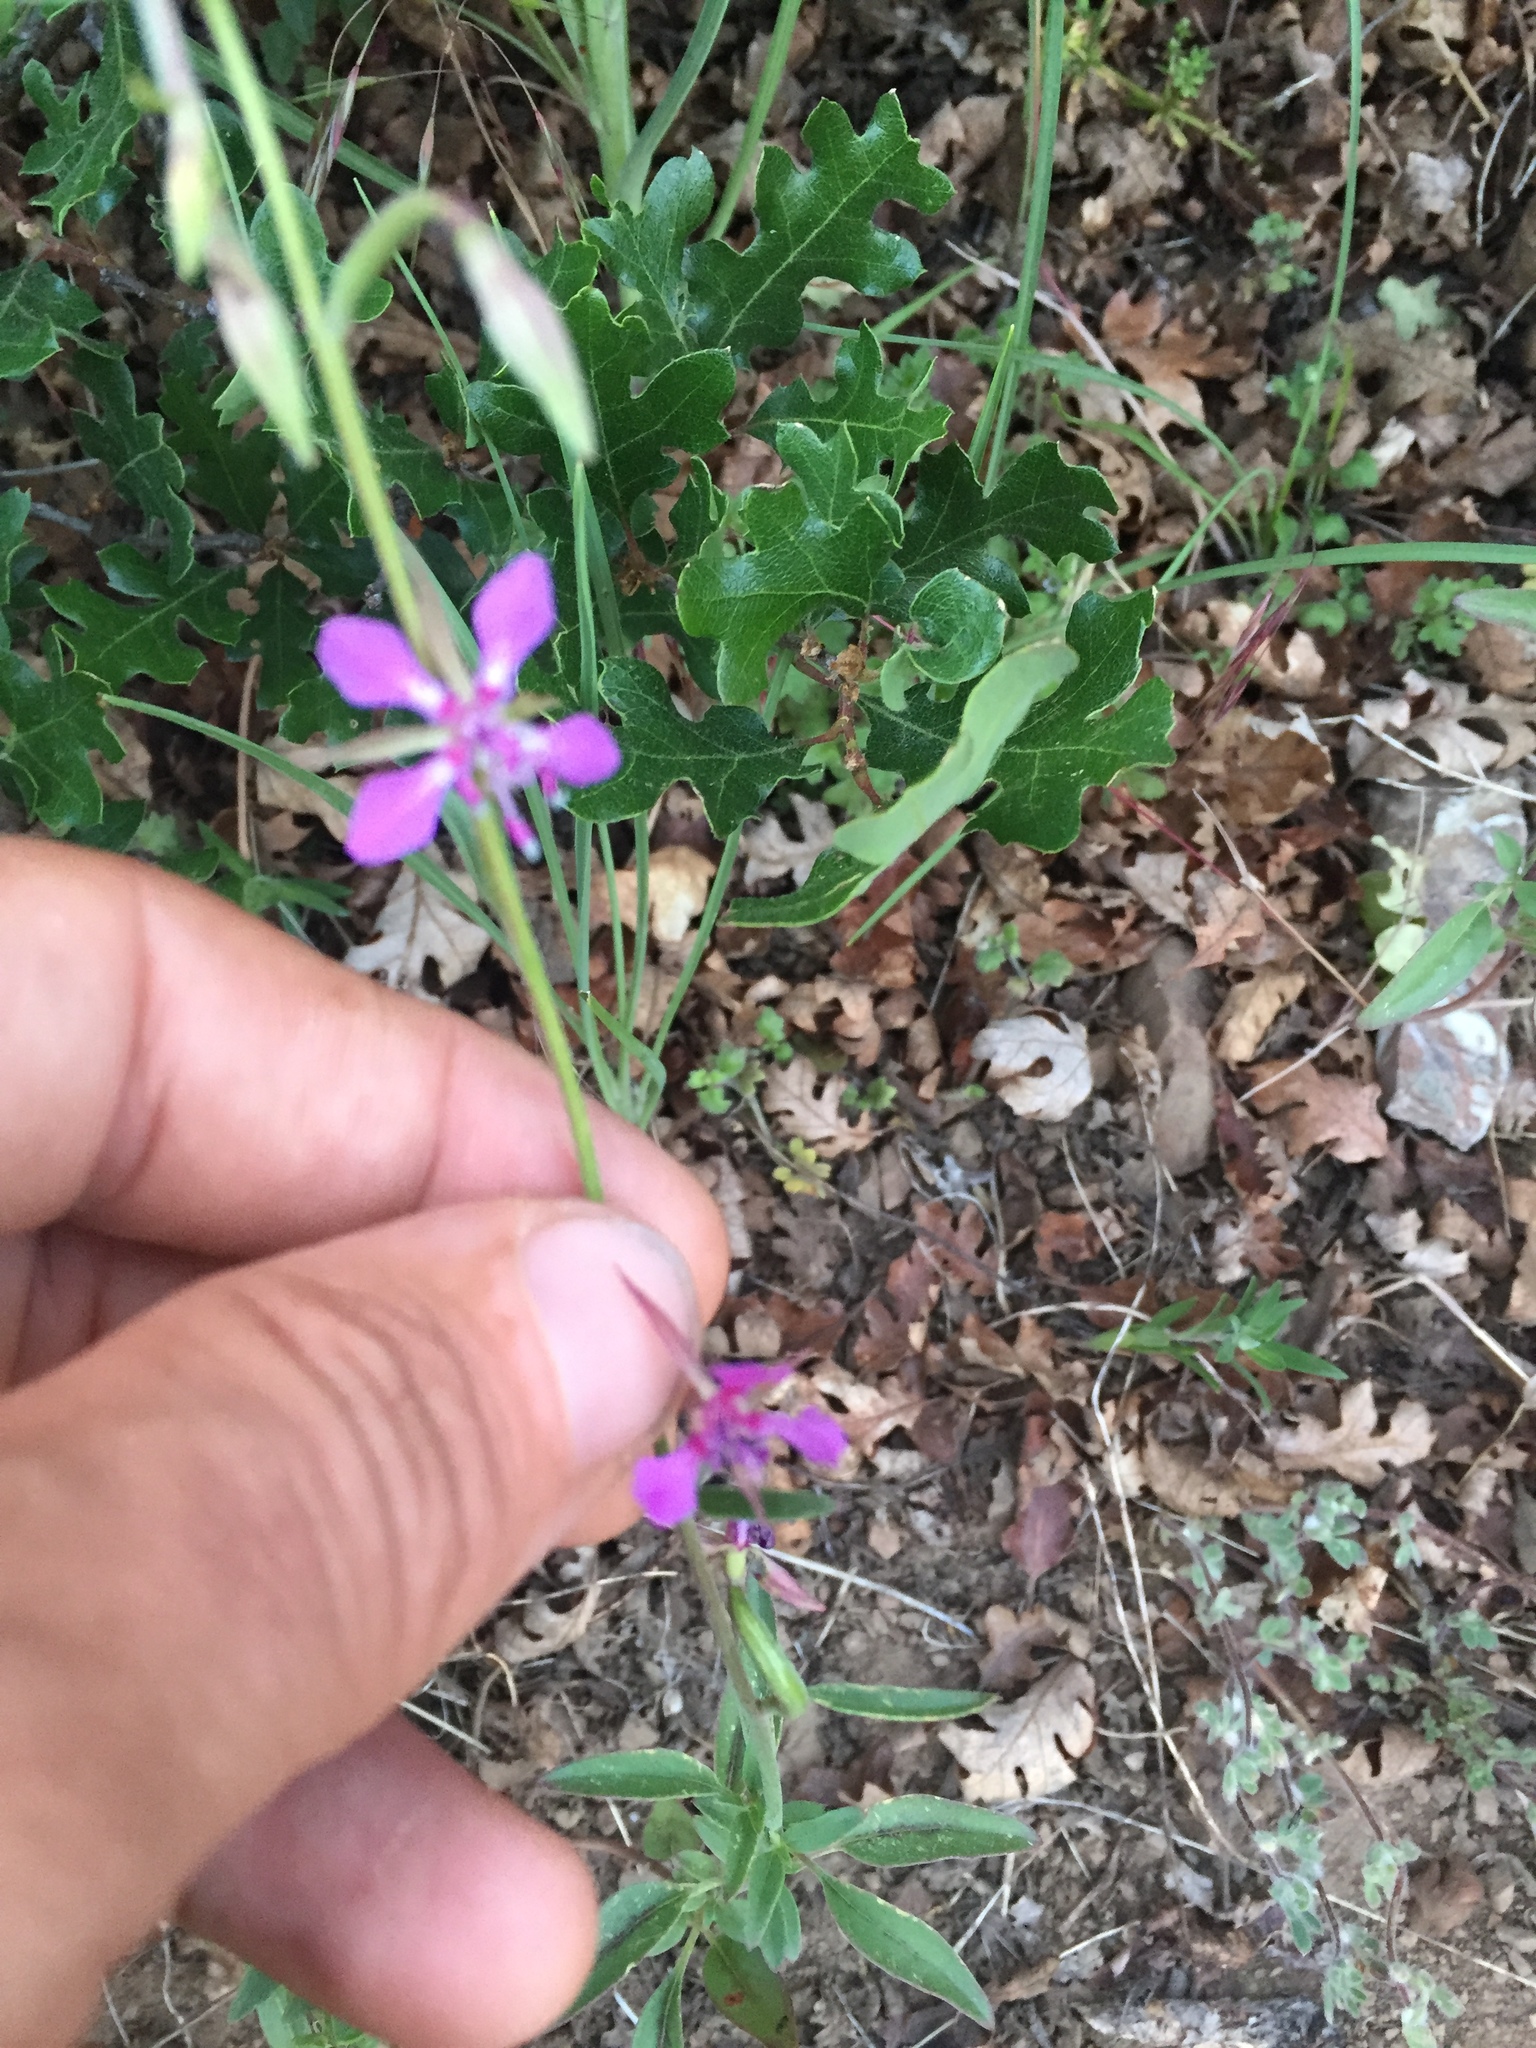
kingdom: Plantae
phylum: Tracheophyta
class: Magnoliopsida
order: Myrtales
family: Onagraceae
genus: Clarkia
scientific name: Clarkia rhomboidea
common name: Broadleaf clarkia
